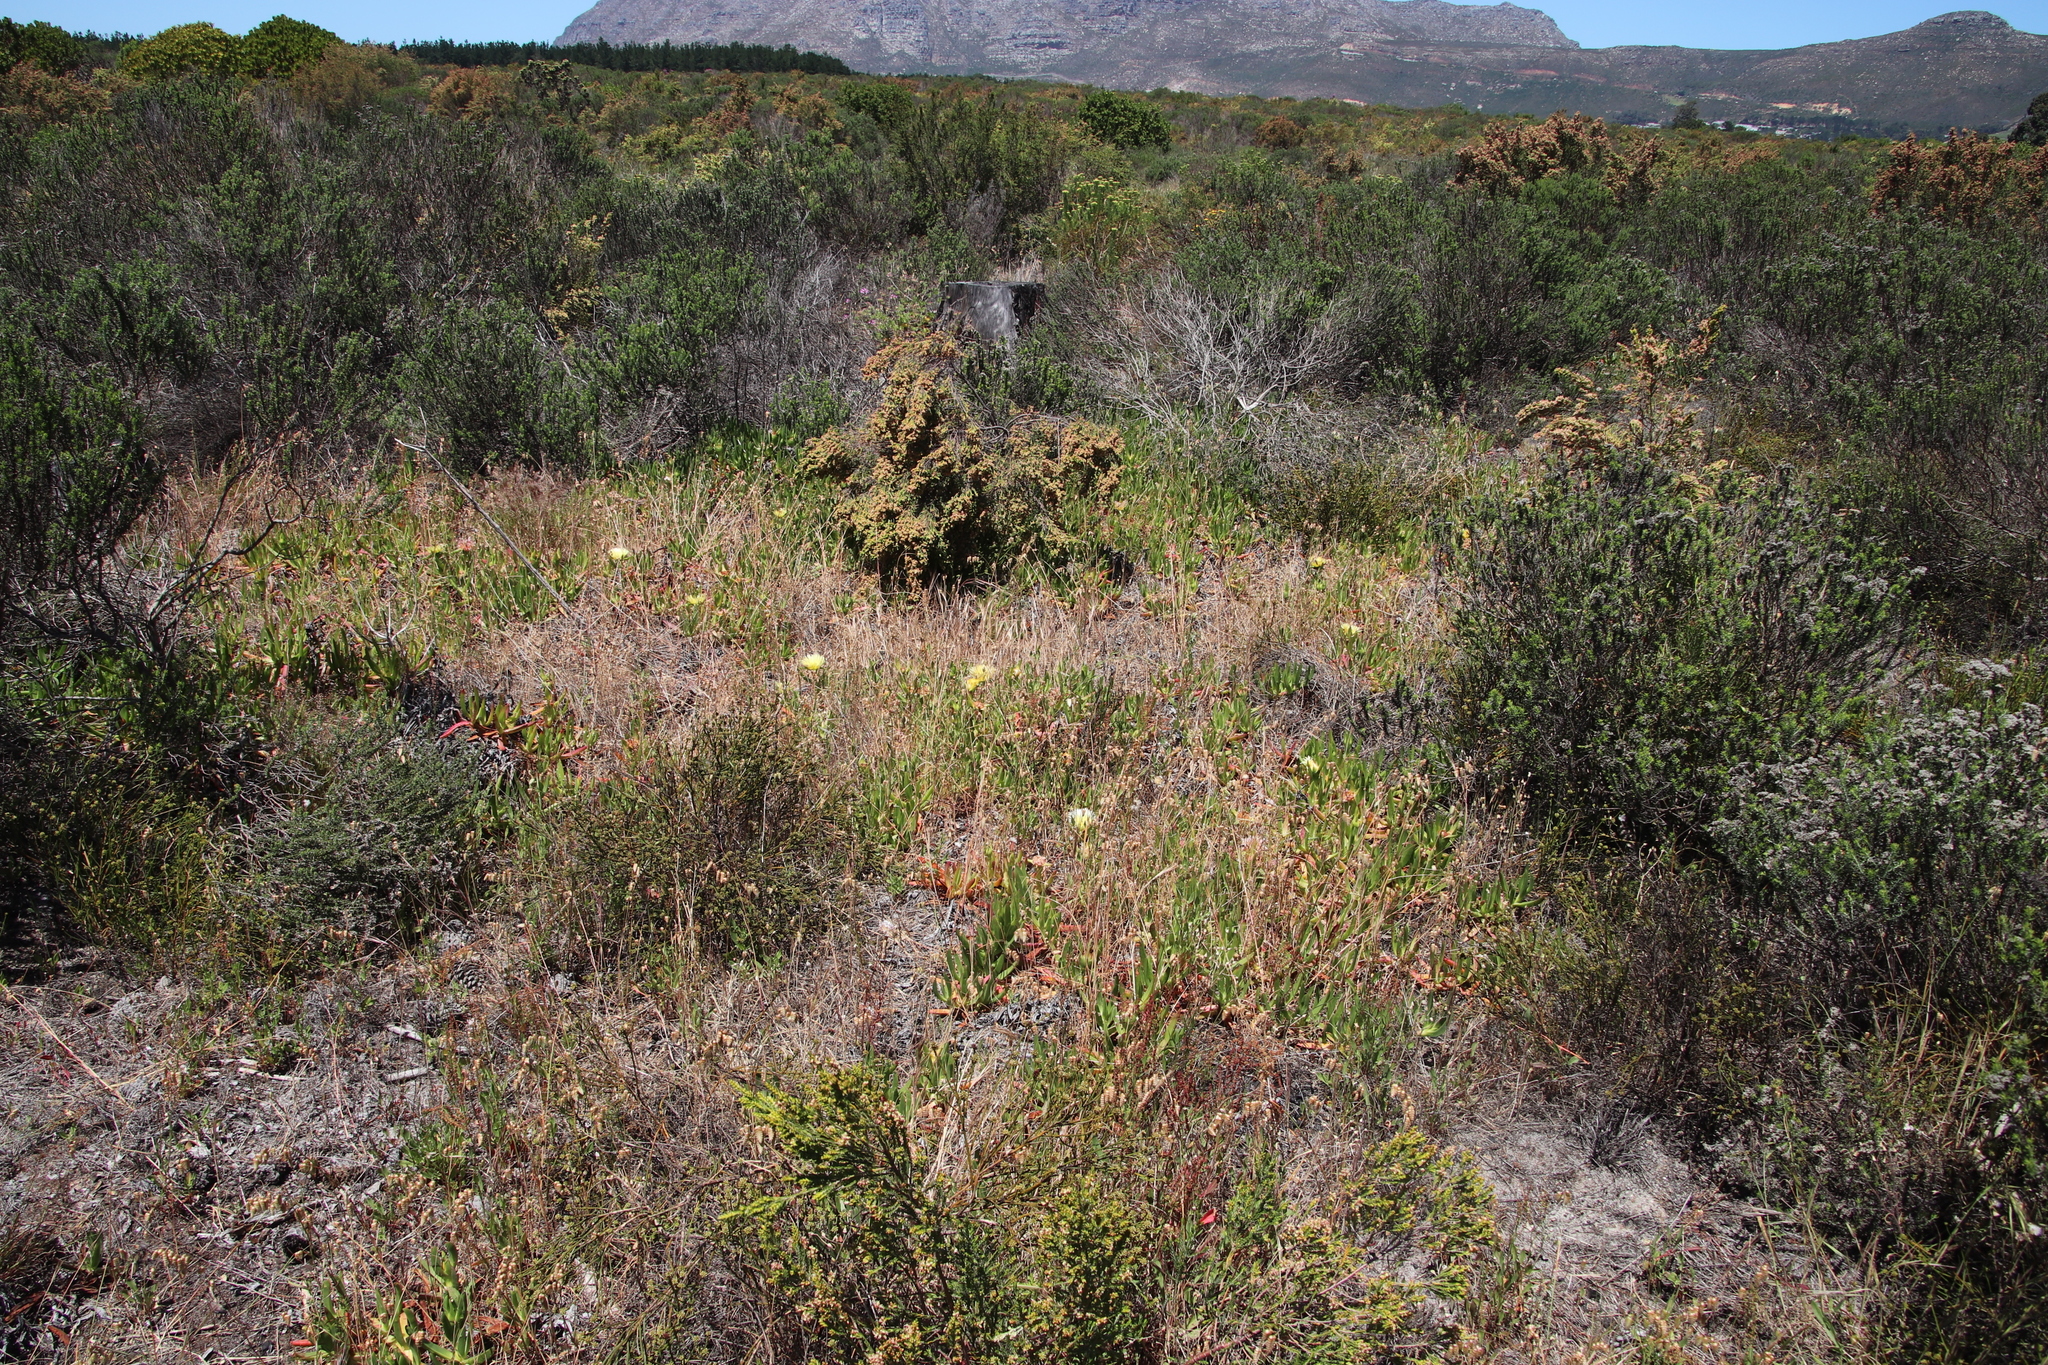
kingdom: Plantae
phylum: Tracheophyta
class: Magnoliopsida
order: Caryophyllales
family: Aizoaceae
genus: Carpobrotus
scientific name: Carpobrotus edulis
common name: Hottentot-fig
